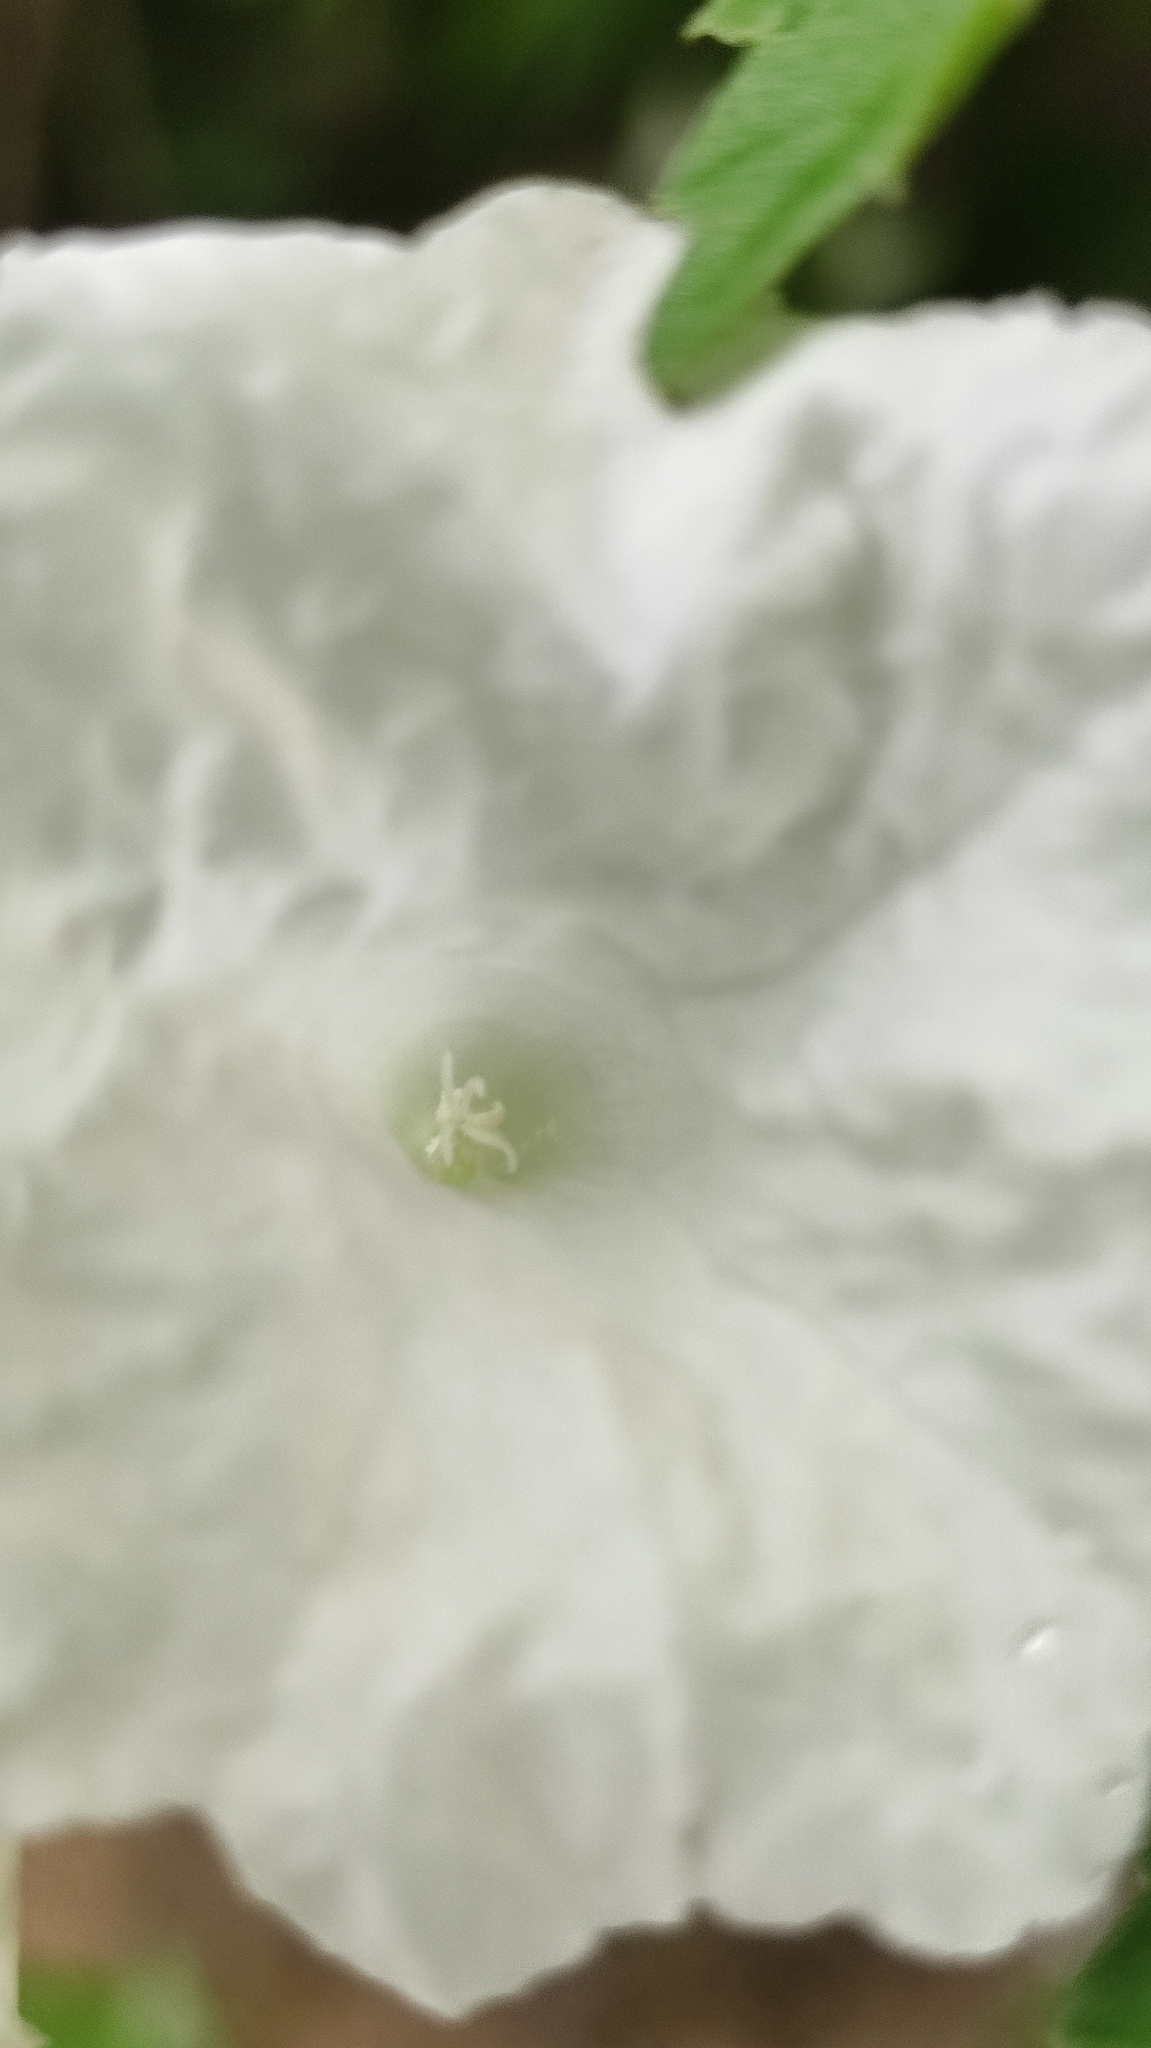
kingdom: Plantae
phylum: Tracheophyta
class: Magnoliopsida
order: Boraginales
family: Cordiaceae
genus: Varronia
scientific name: Varronia leucocephala
